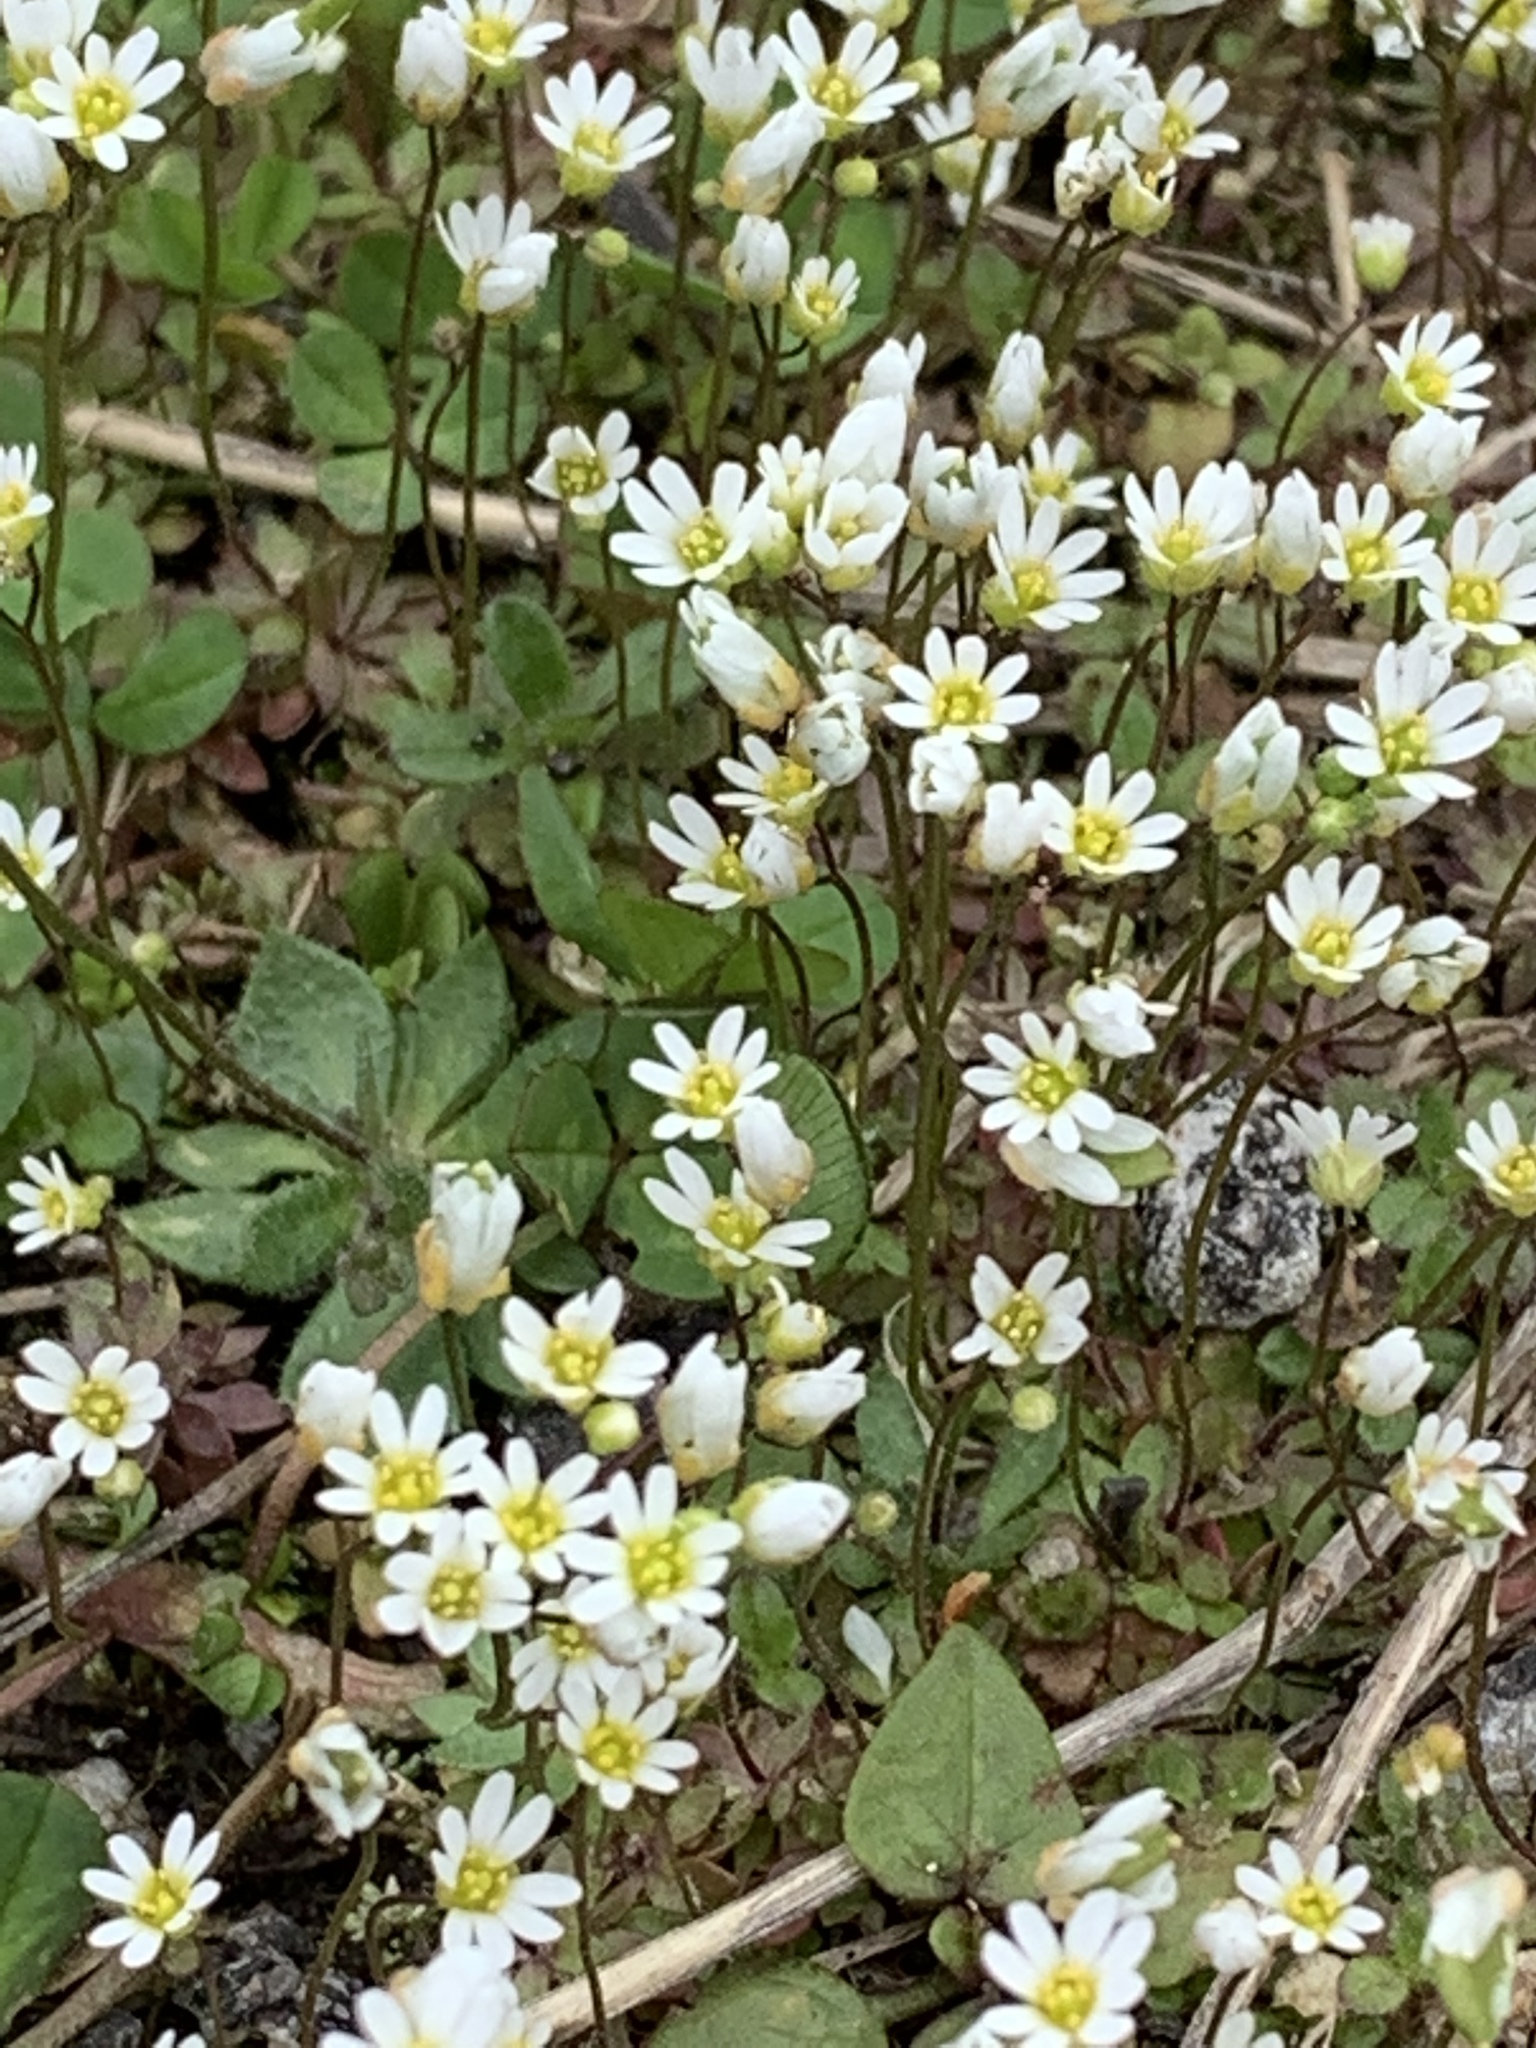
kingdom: Plantae
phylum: Tracheophyta
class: Magnoliopsida
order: Brassicales
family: Brassicaceae
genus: Draba
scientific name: Draba verna
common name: Spring draba
